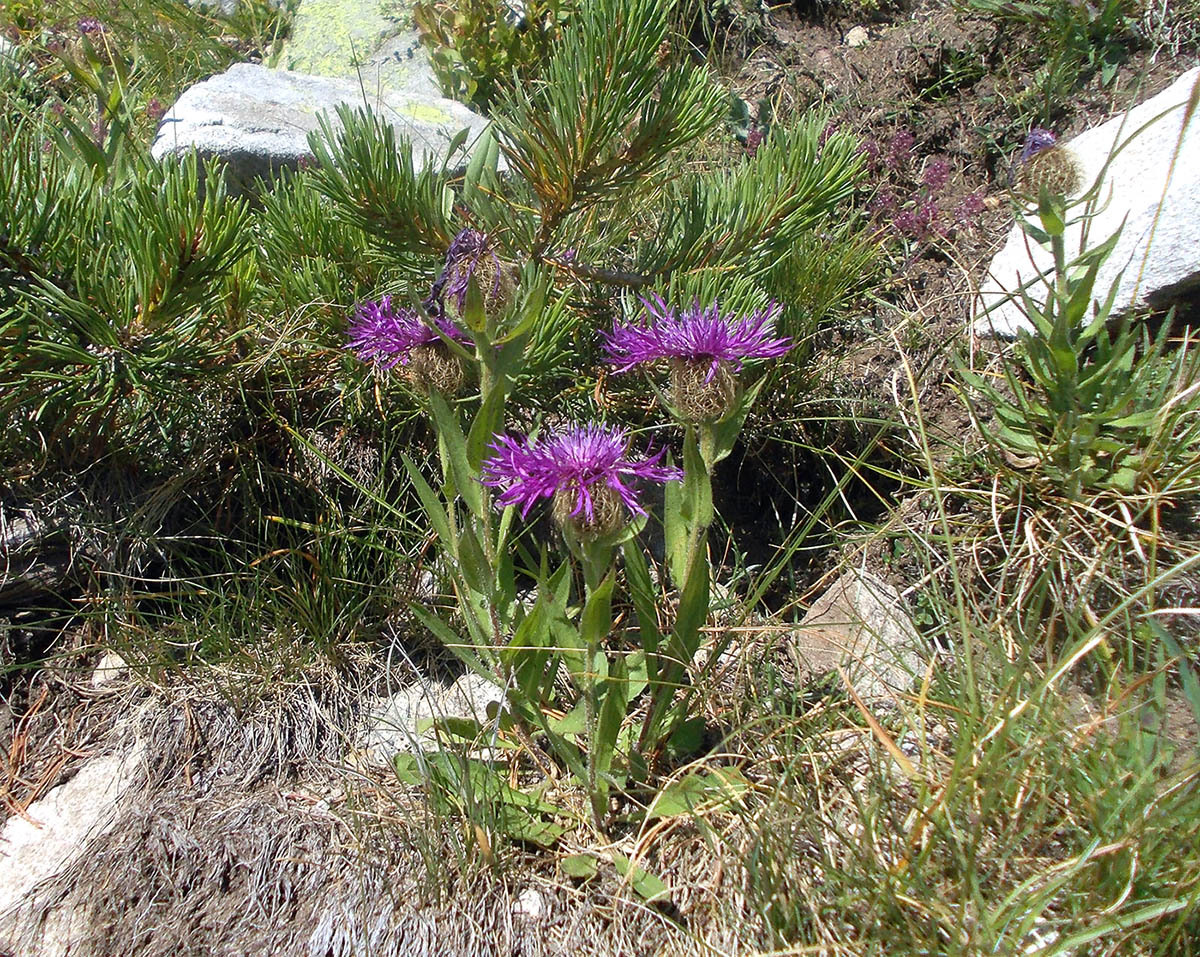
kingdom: Plantae
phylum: Tracheophyta
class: Magnoliopsida
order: Asterales
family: Asteraceae
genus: Centaurea
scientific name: Centaurea nervosa
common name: Singleflower knapweed
